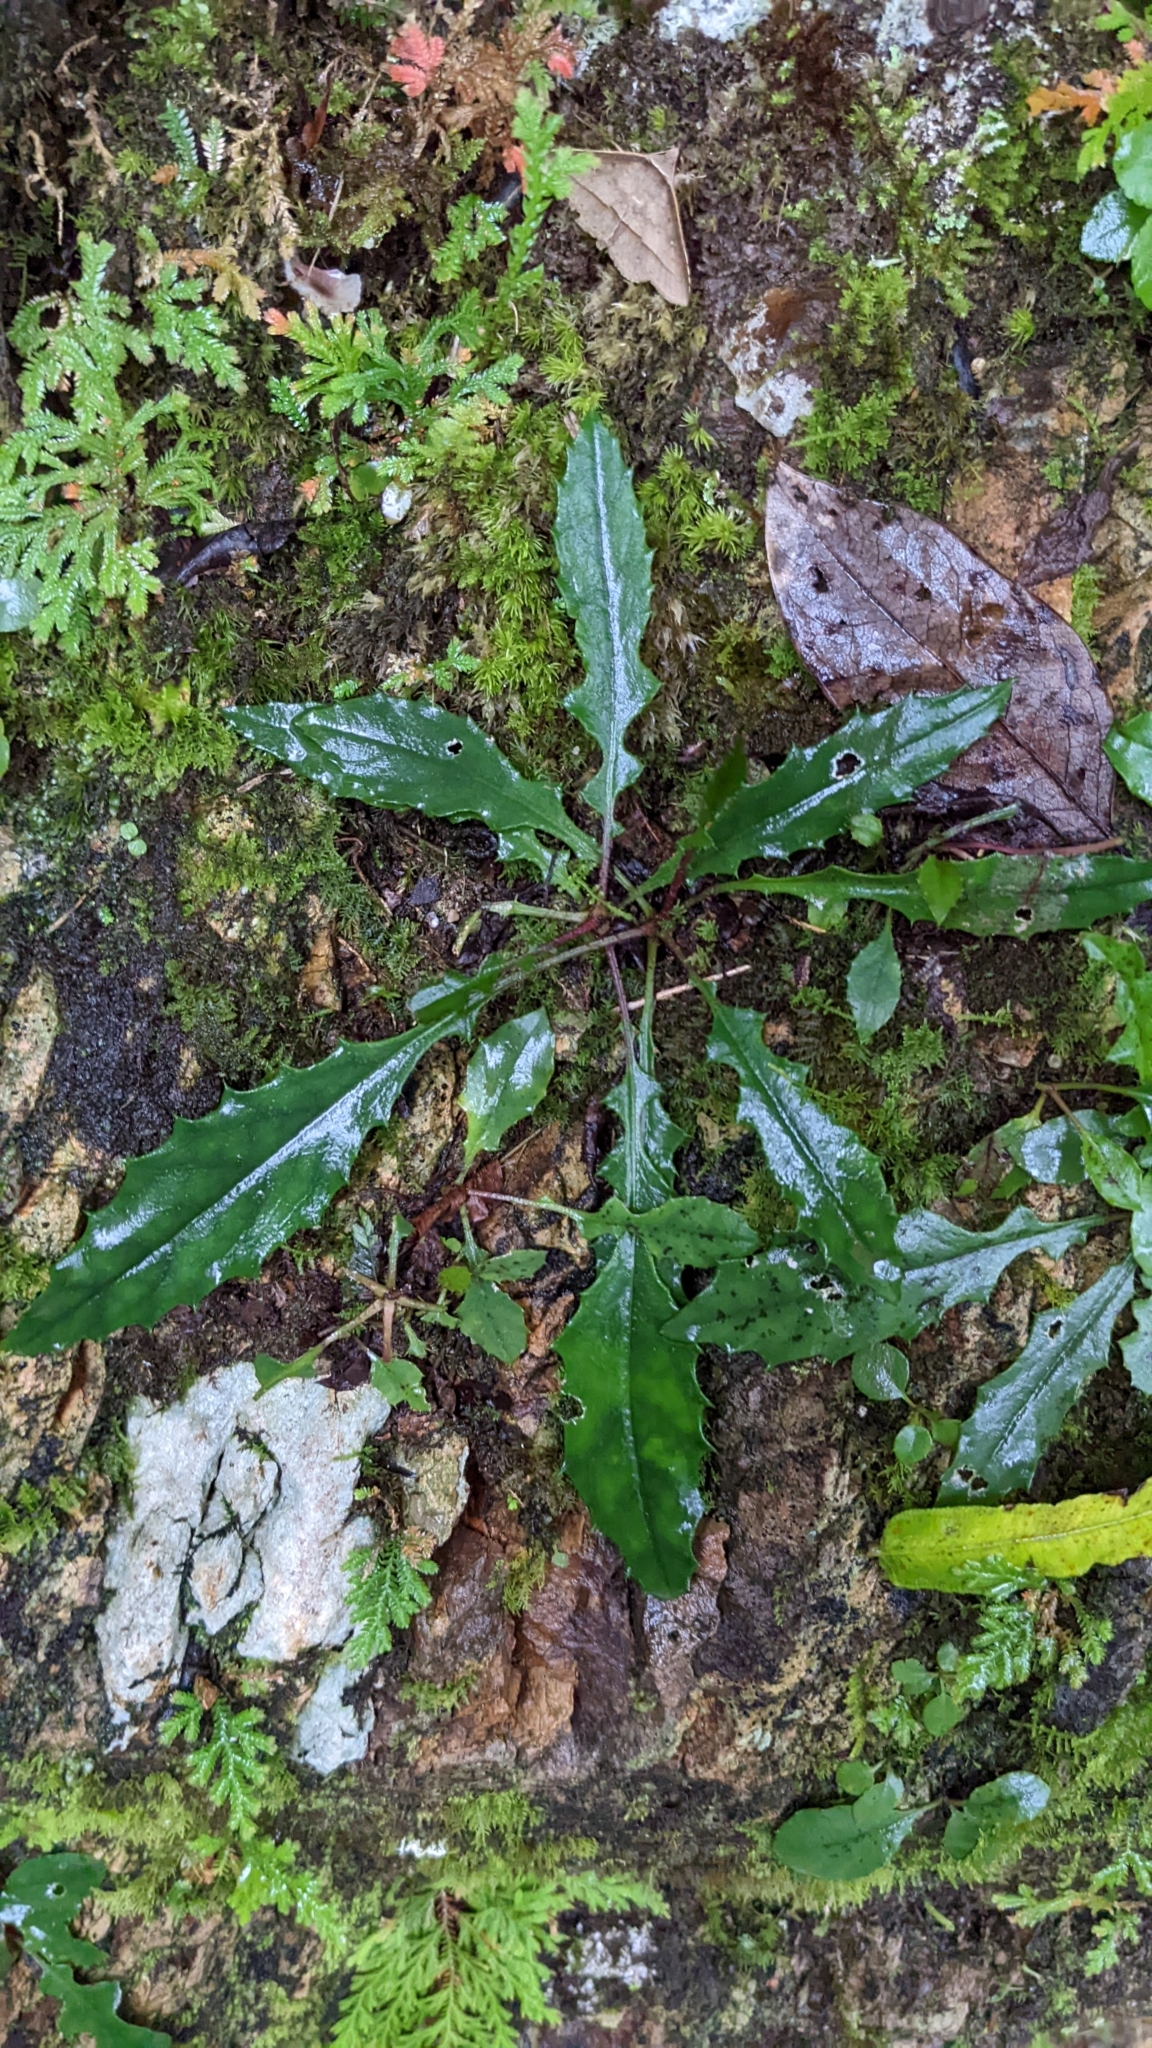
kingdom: Plantae
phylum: Tracheophyta
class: Magnoliopsida
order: Asterales
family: Asteraceae
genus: Ixeridium
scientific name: Ixeridium laevigatum
